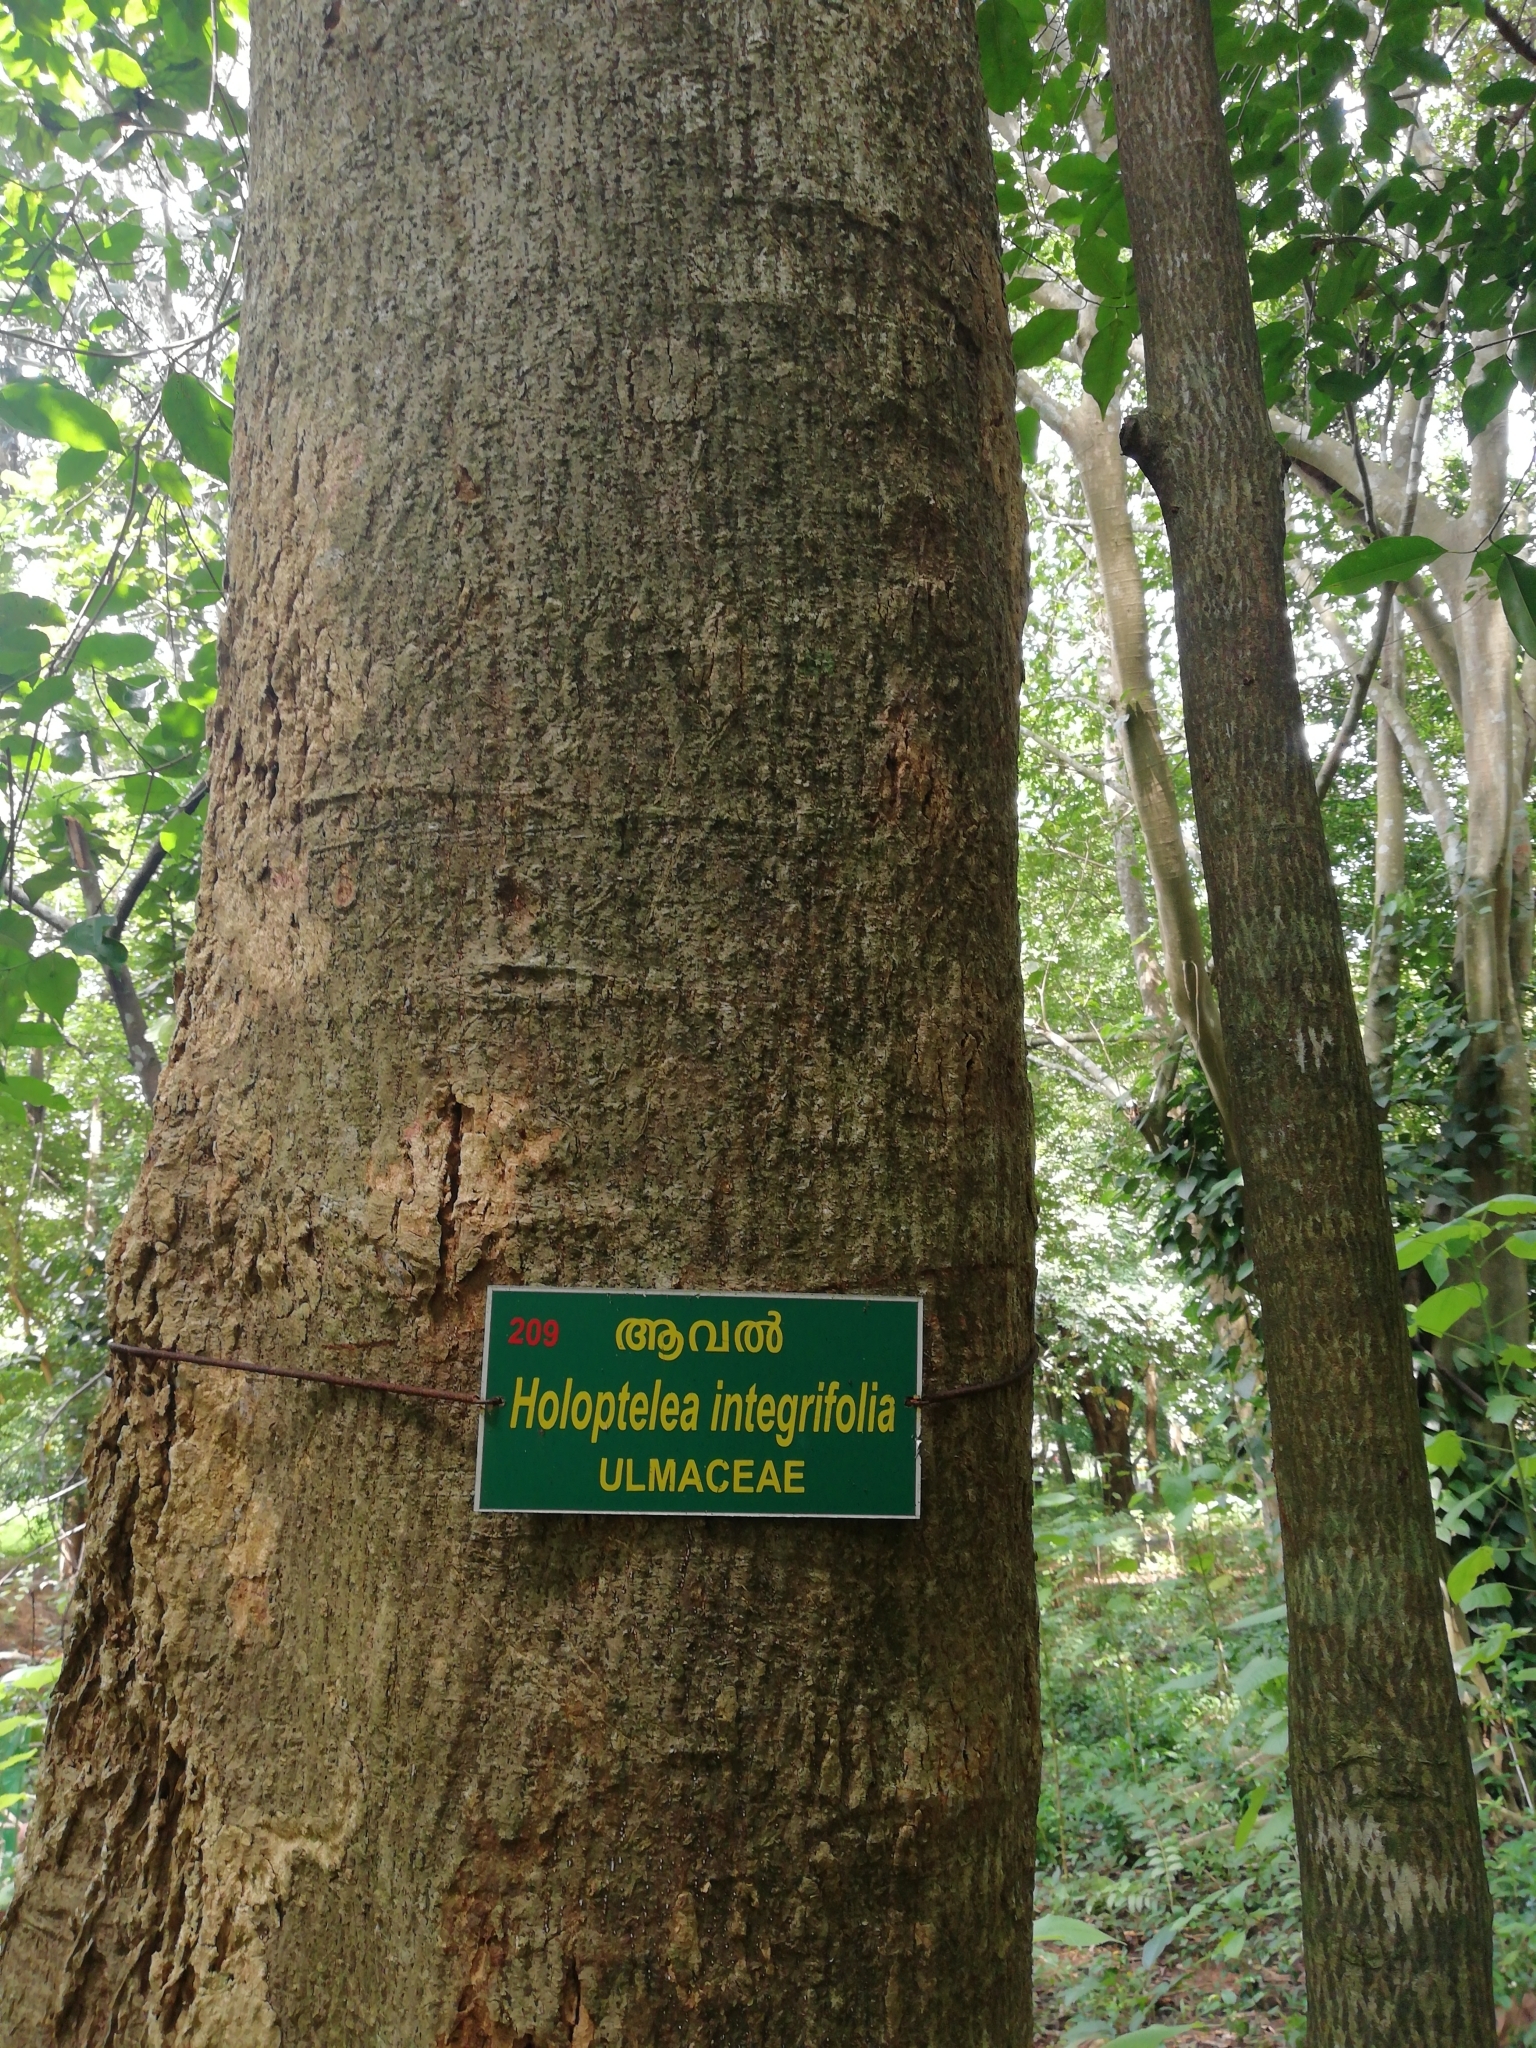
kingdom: Plantae
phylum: Tracheophyta
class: Magnoliopsida
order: Rosales
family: Ulmaceae
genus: Holoptelea
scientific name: Holoptelea integrifolia
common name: Indian-elm
